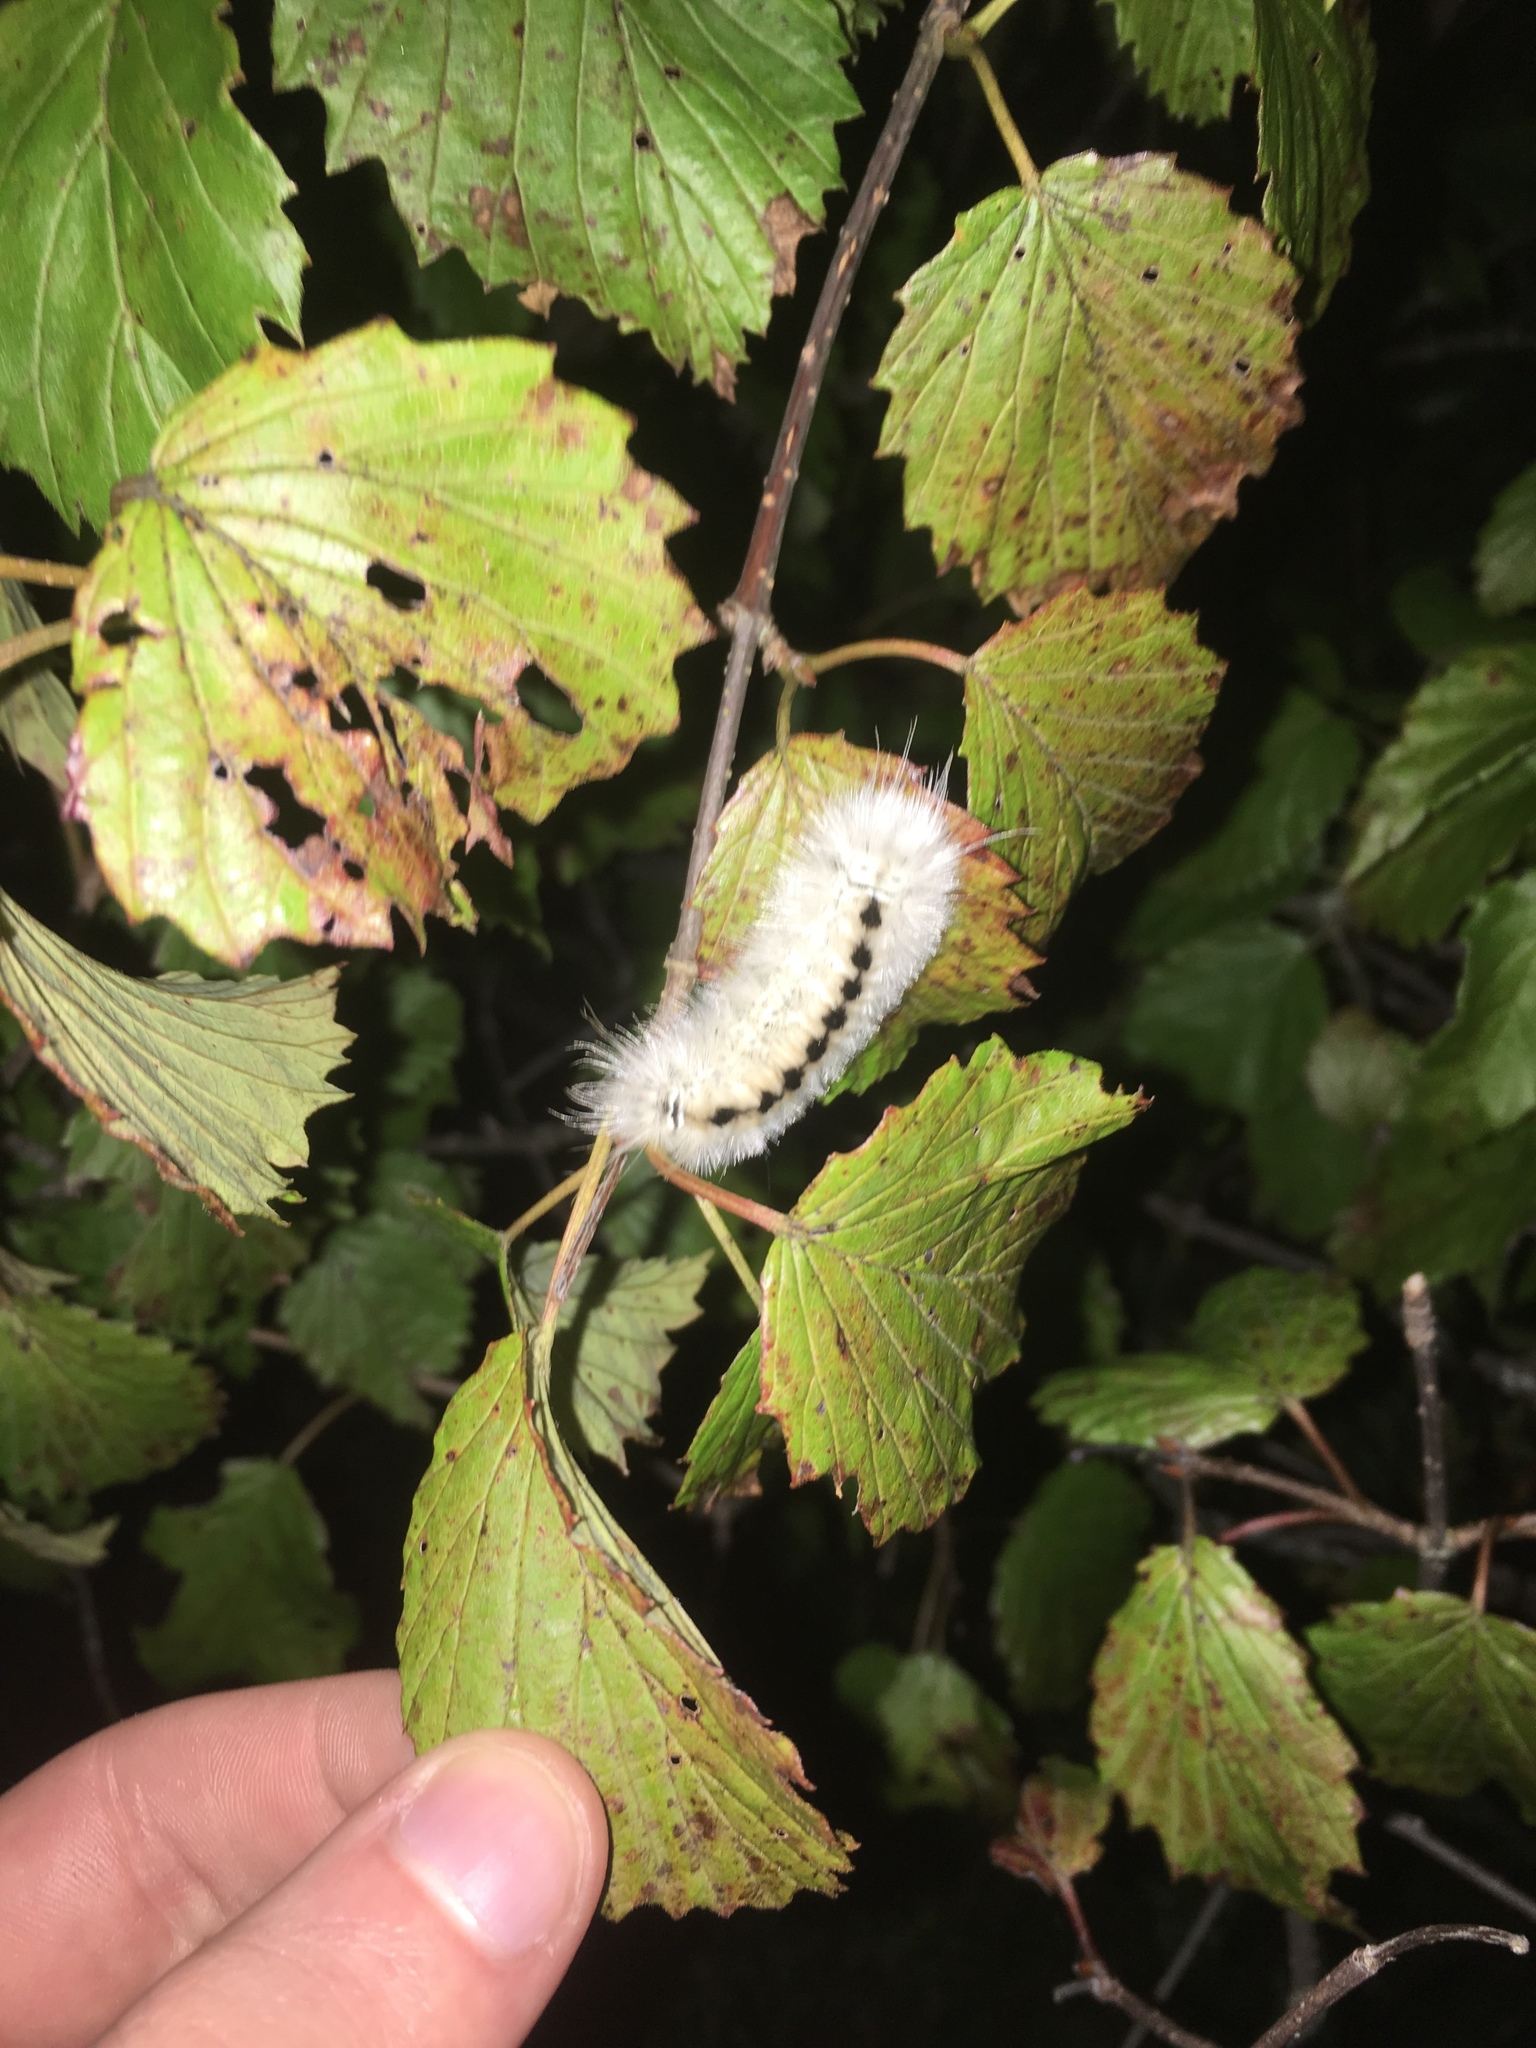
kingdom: Animalia
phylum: Arthropoda
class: Insecta
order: Lepidoptera
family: Erebidae
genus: Lophocampa
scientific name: Lophocampa caryae
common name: Hickory tussock moth
